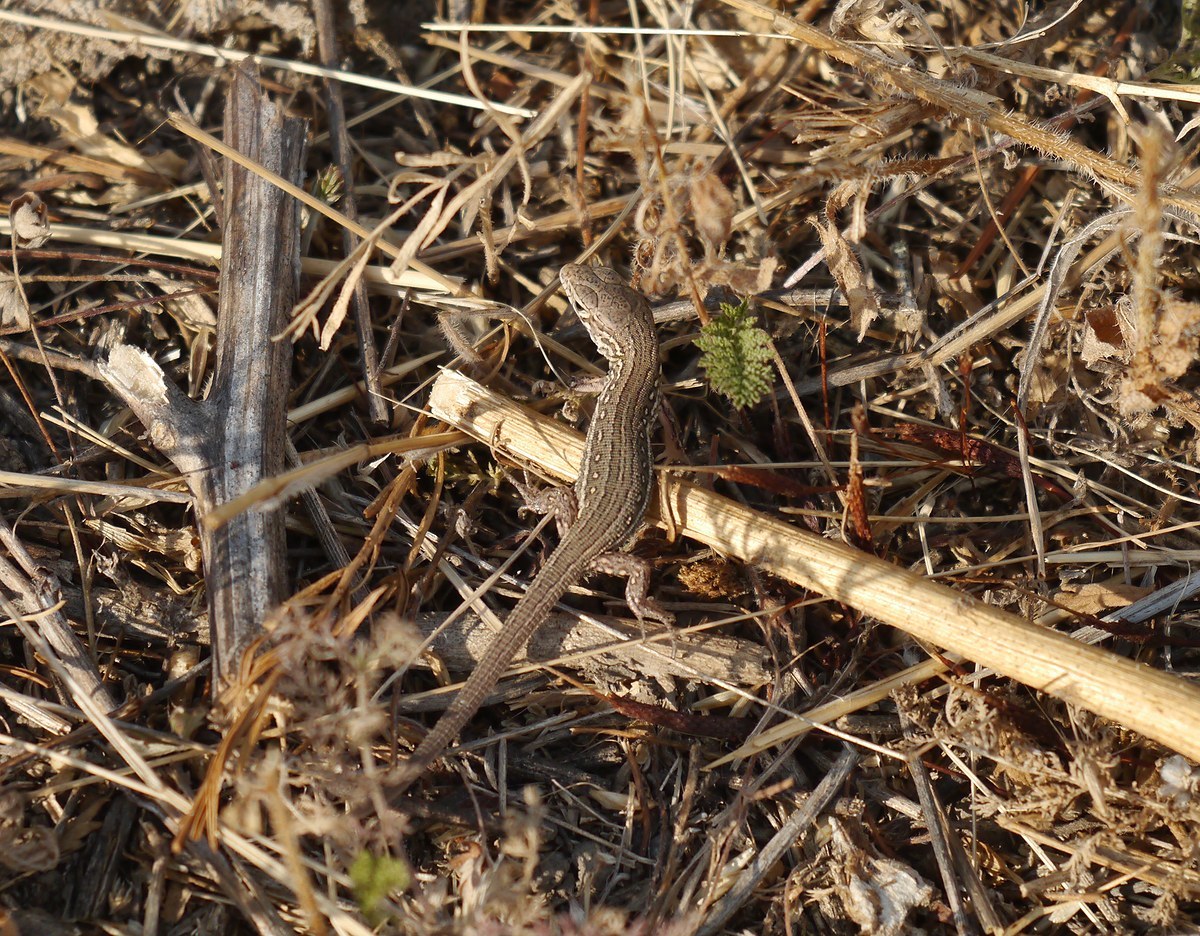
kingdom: Animalia
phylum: Chordata
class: Squamata
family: Lacertidae
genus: Lacerta
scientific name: Lacerta agilis
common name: Sand lizard
